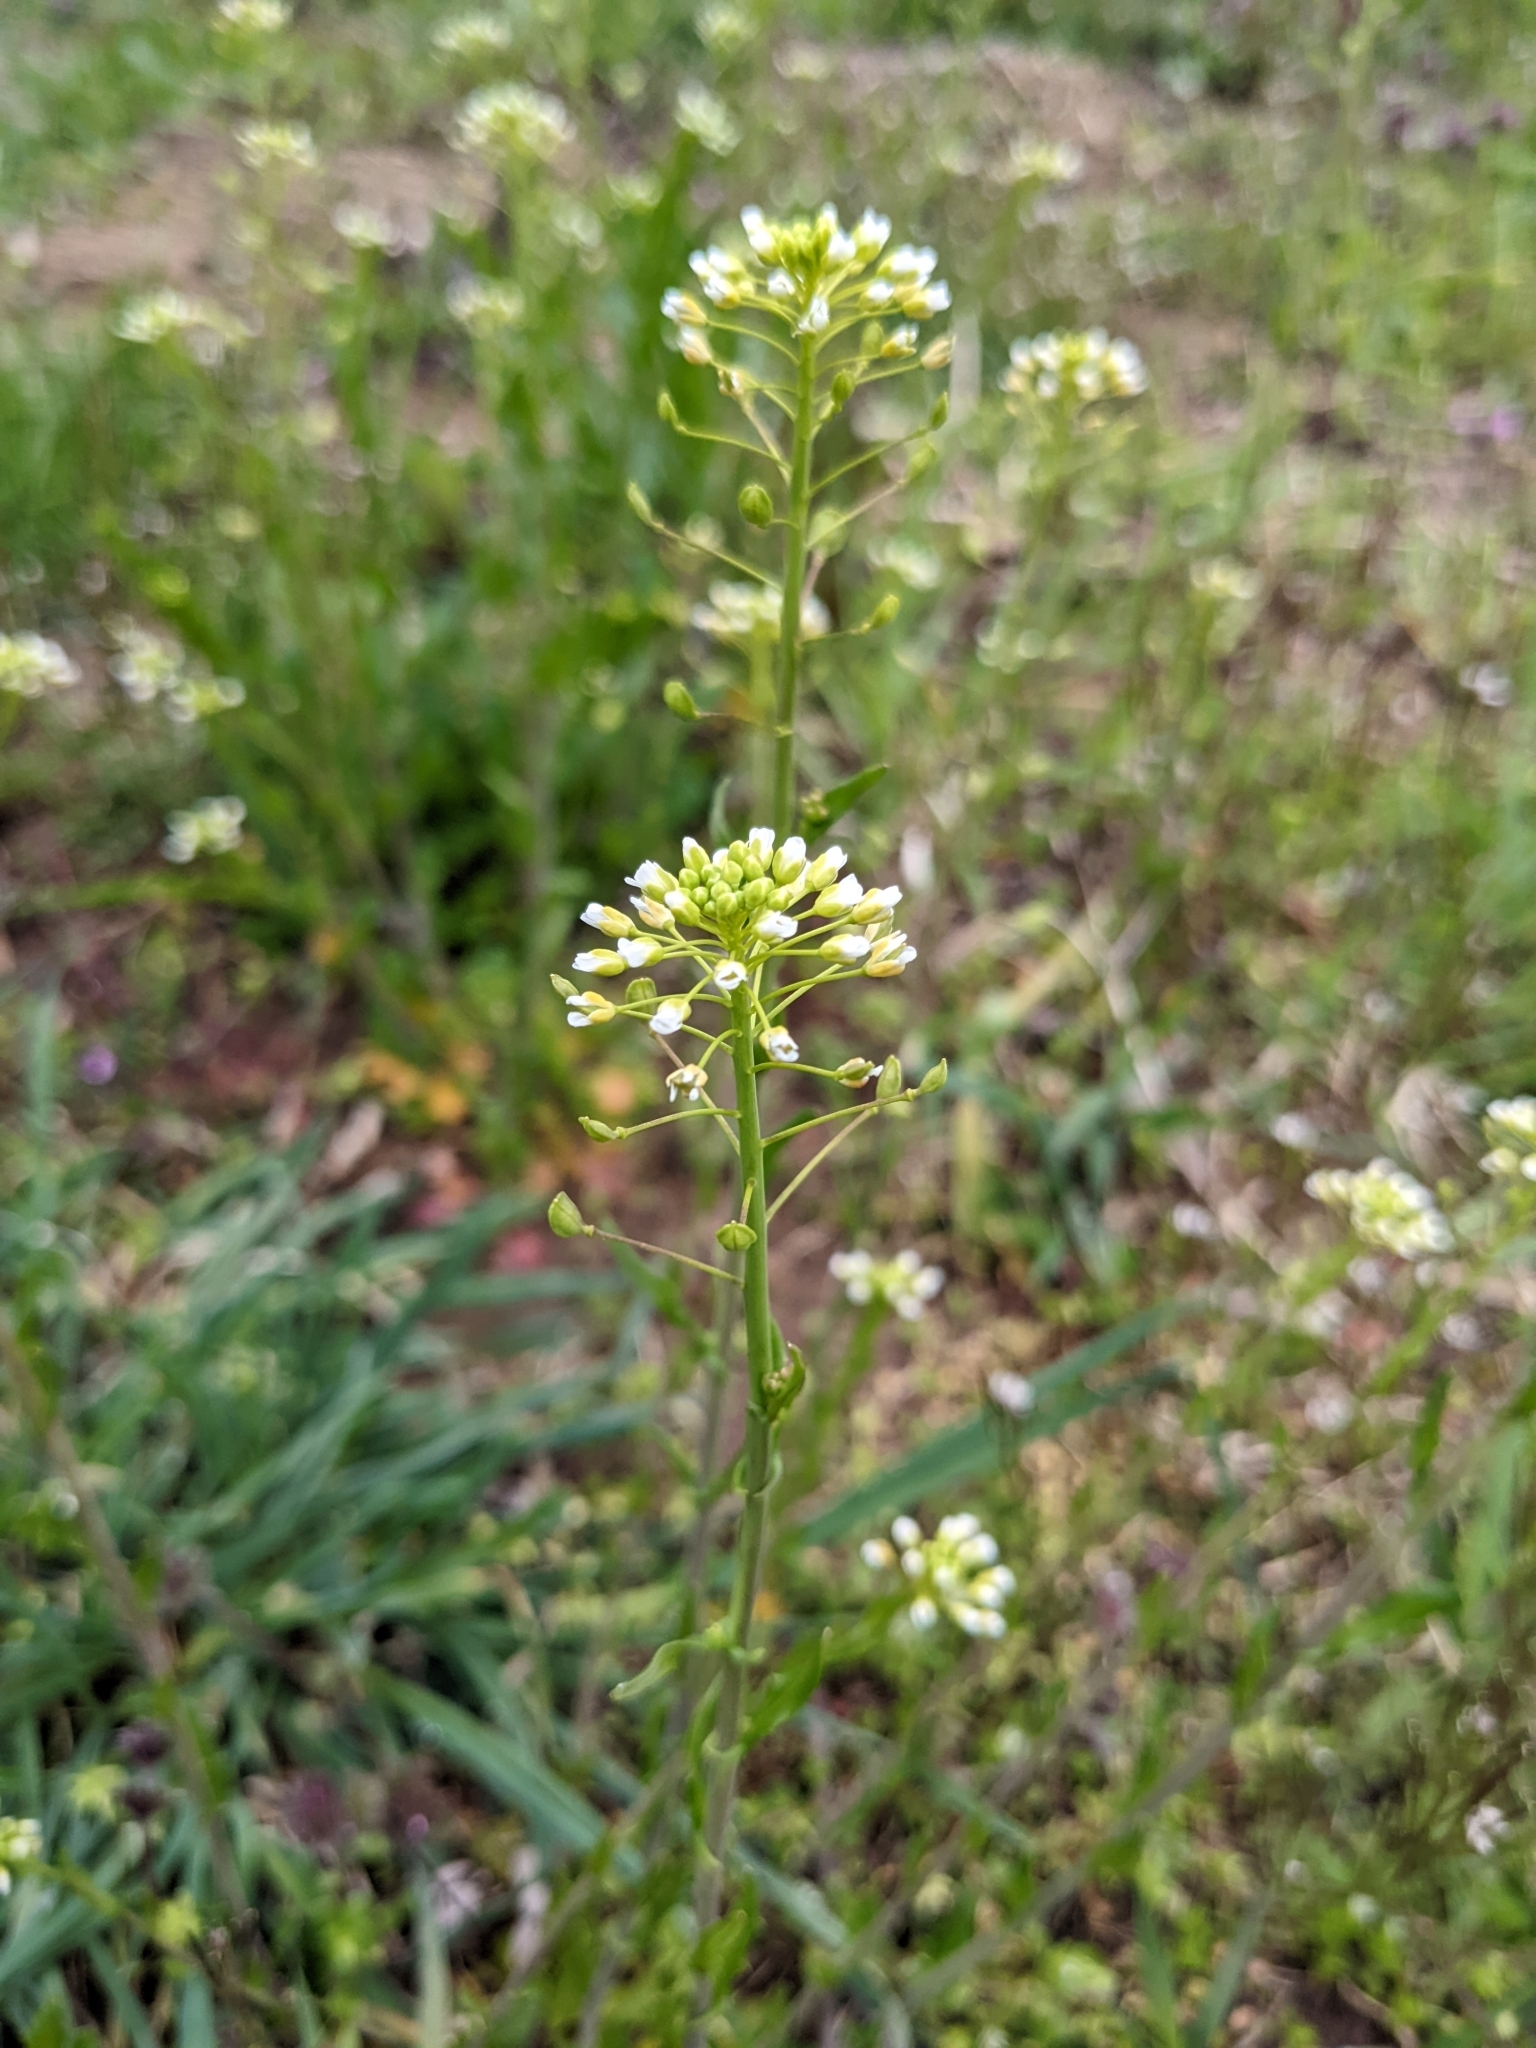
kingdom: Plantae
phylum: Tracheophyta
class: Magnoliopsida
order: Brassicales
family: Brassicaceae
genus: Mummenhoffia
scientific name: Mummenhoffia alliacea
